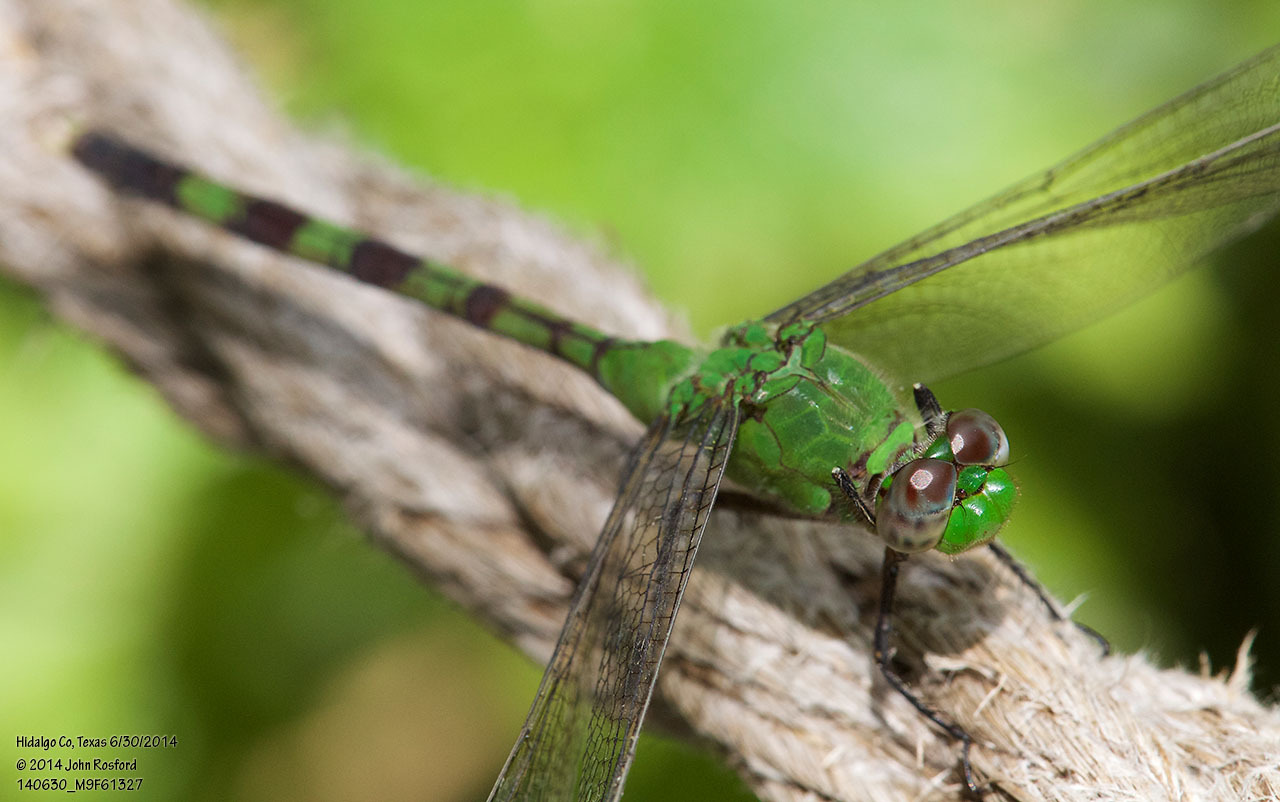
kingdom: Animalia
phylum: Arthropoda
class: Insecta
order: Odonata
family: Libellulidae
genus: Erythemis
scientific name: Erythemis vesiculosa
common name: Great pondhawk
